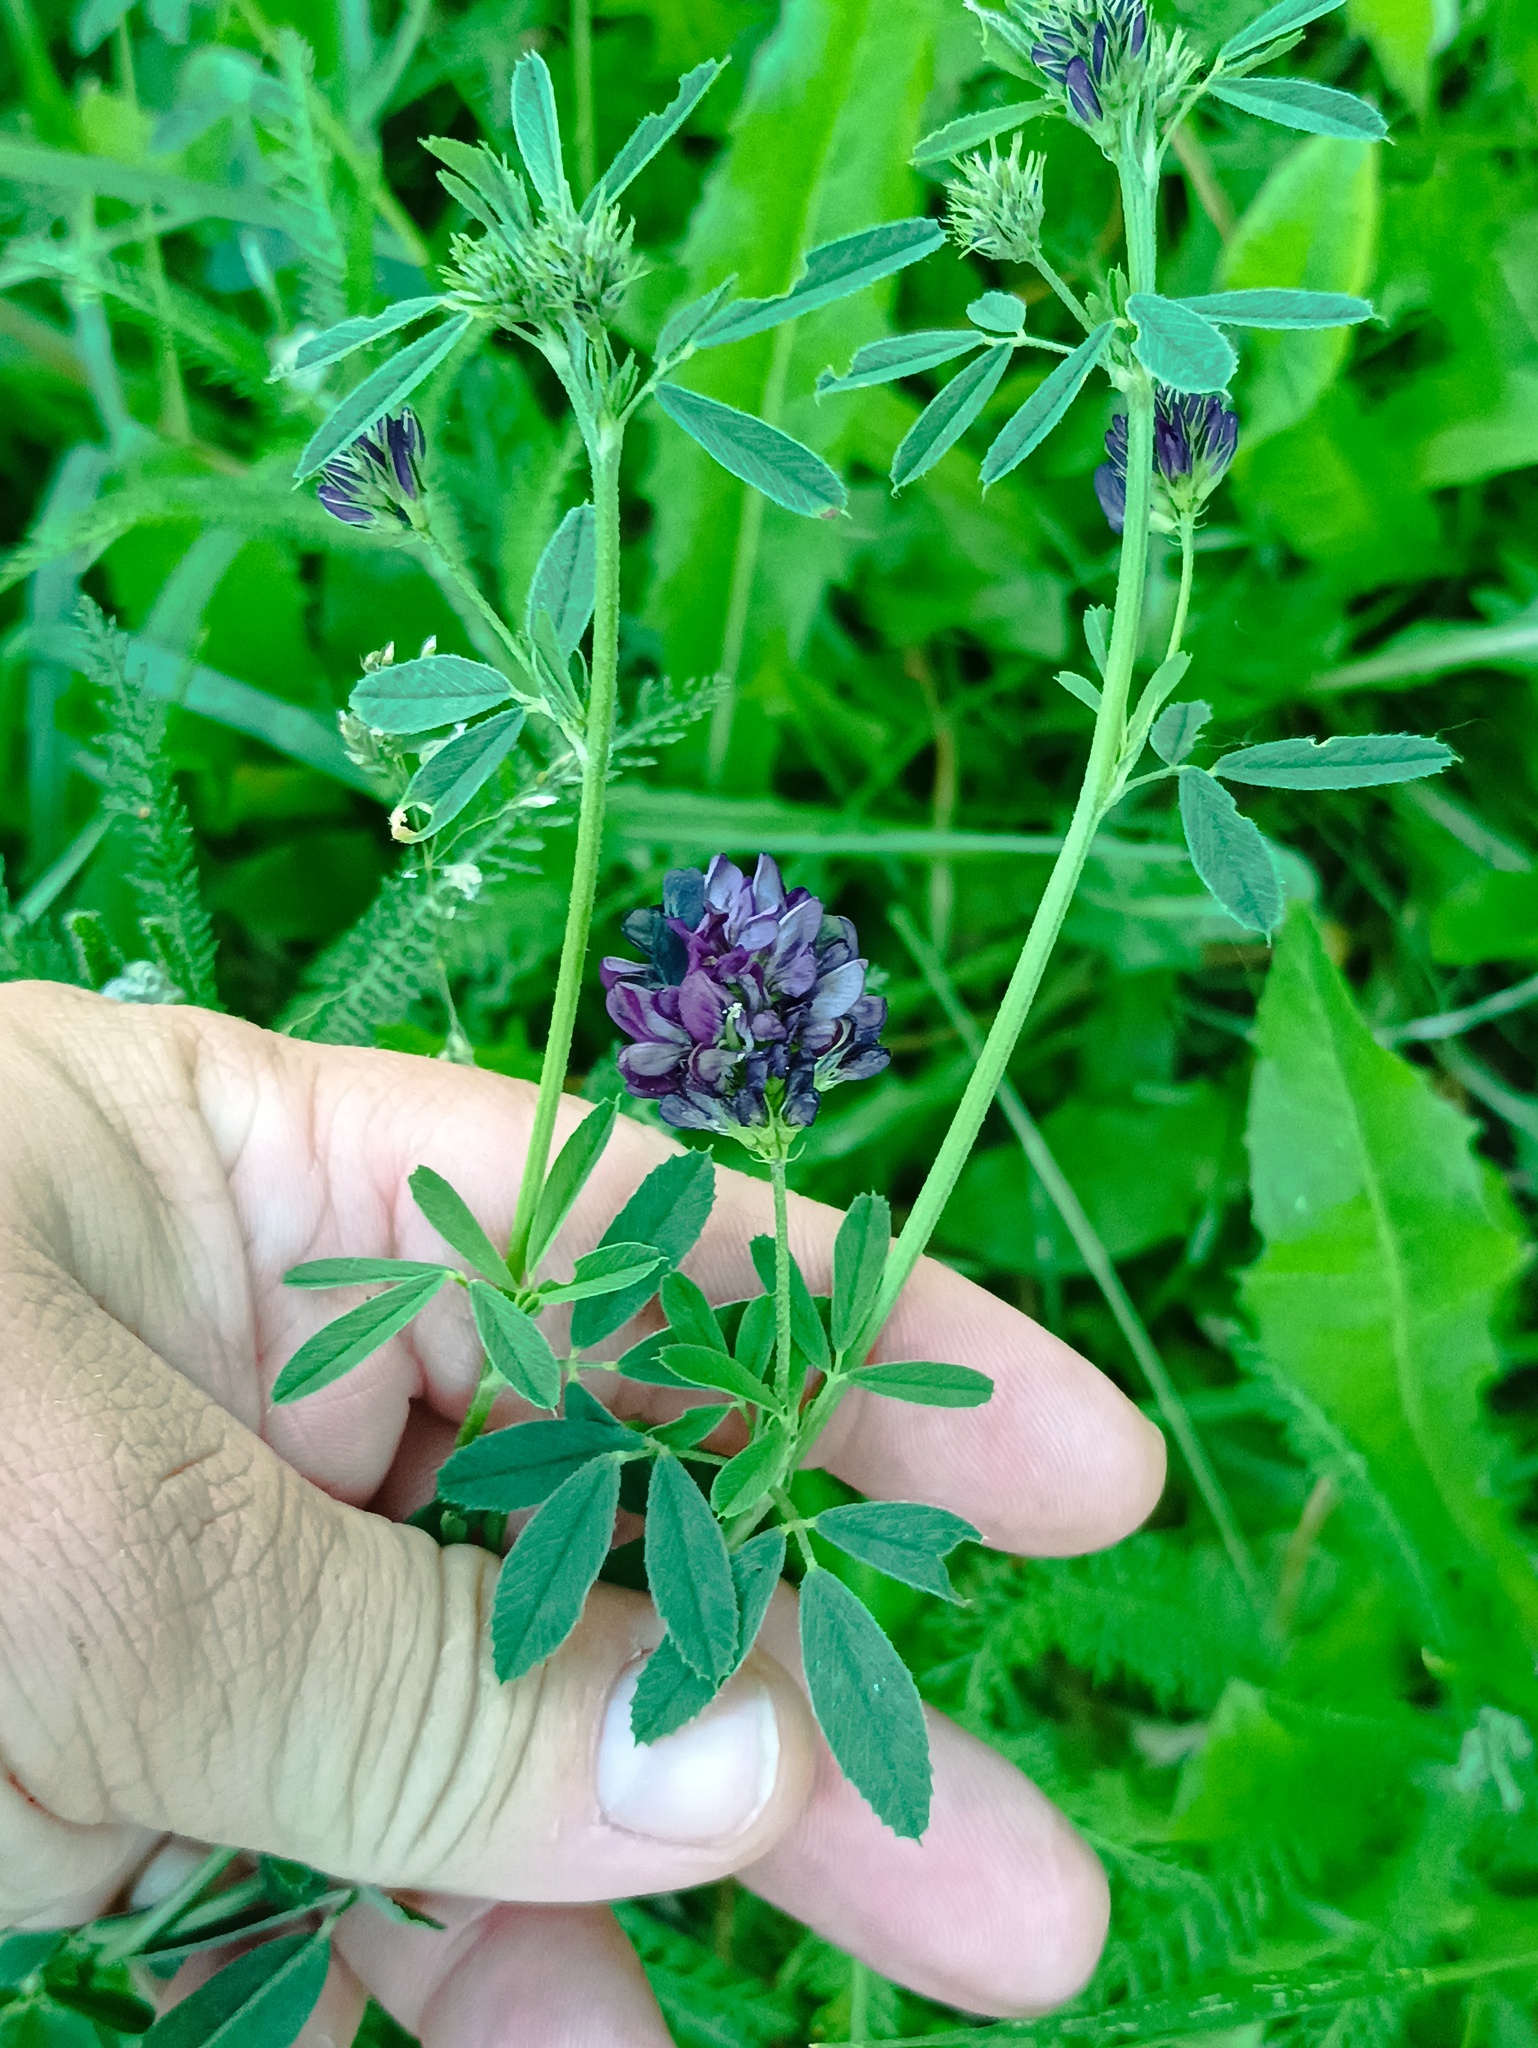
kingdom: Plantae
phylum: Tracheophyta
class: Magnoliopsida
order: Fabales
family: Fabaceae
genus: Medicago
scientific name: Medicago sativa
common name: Alfalfa
